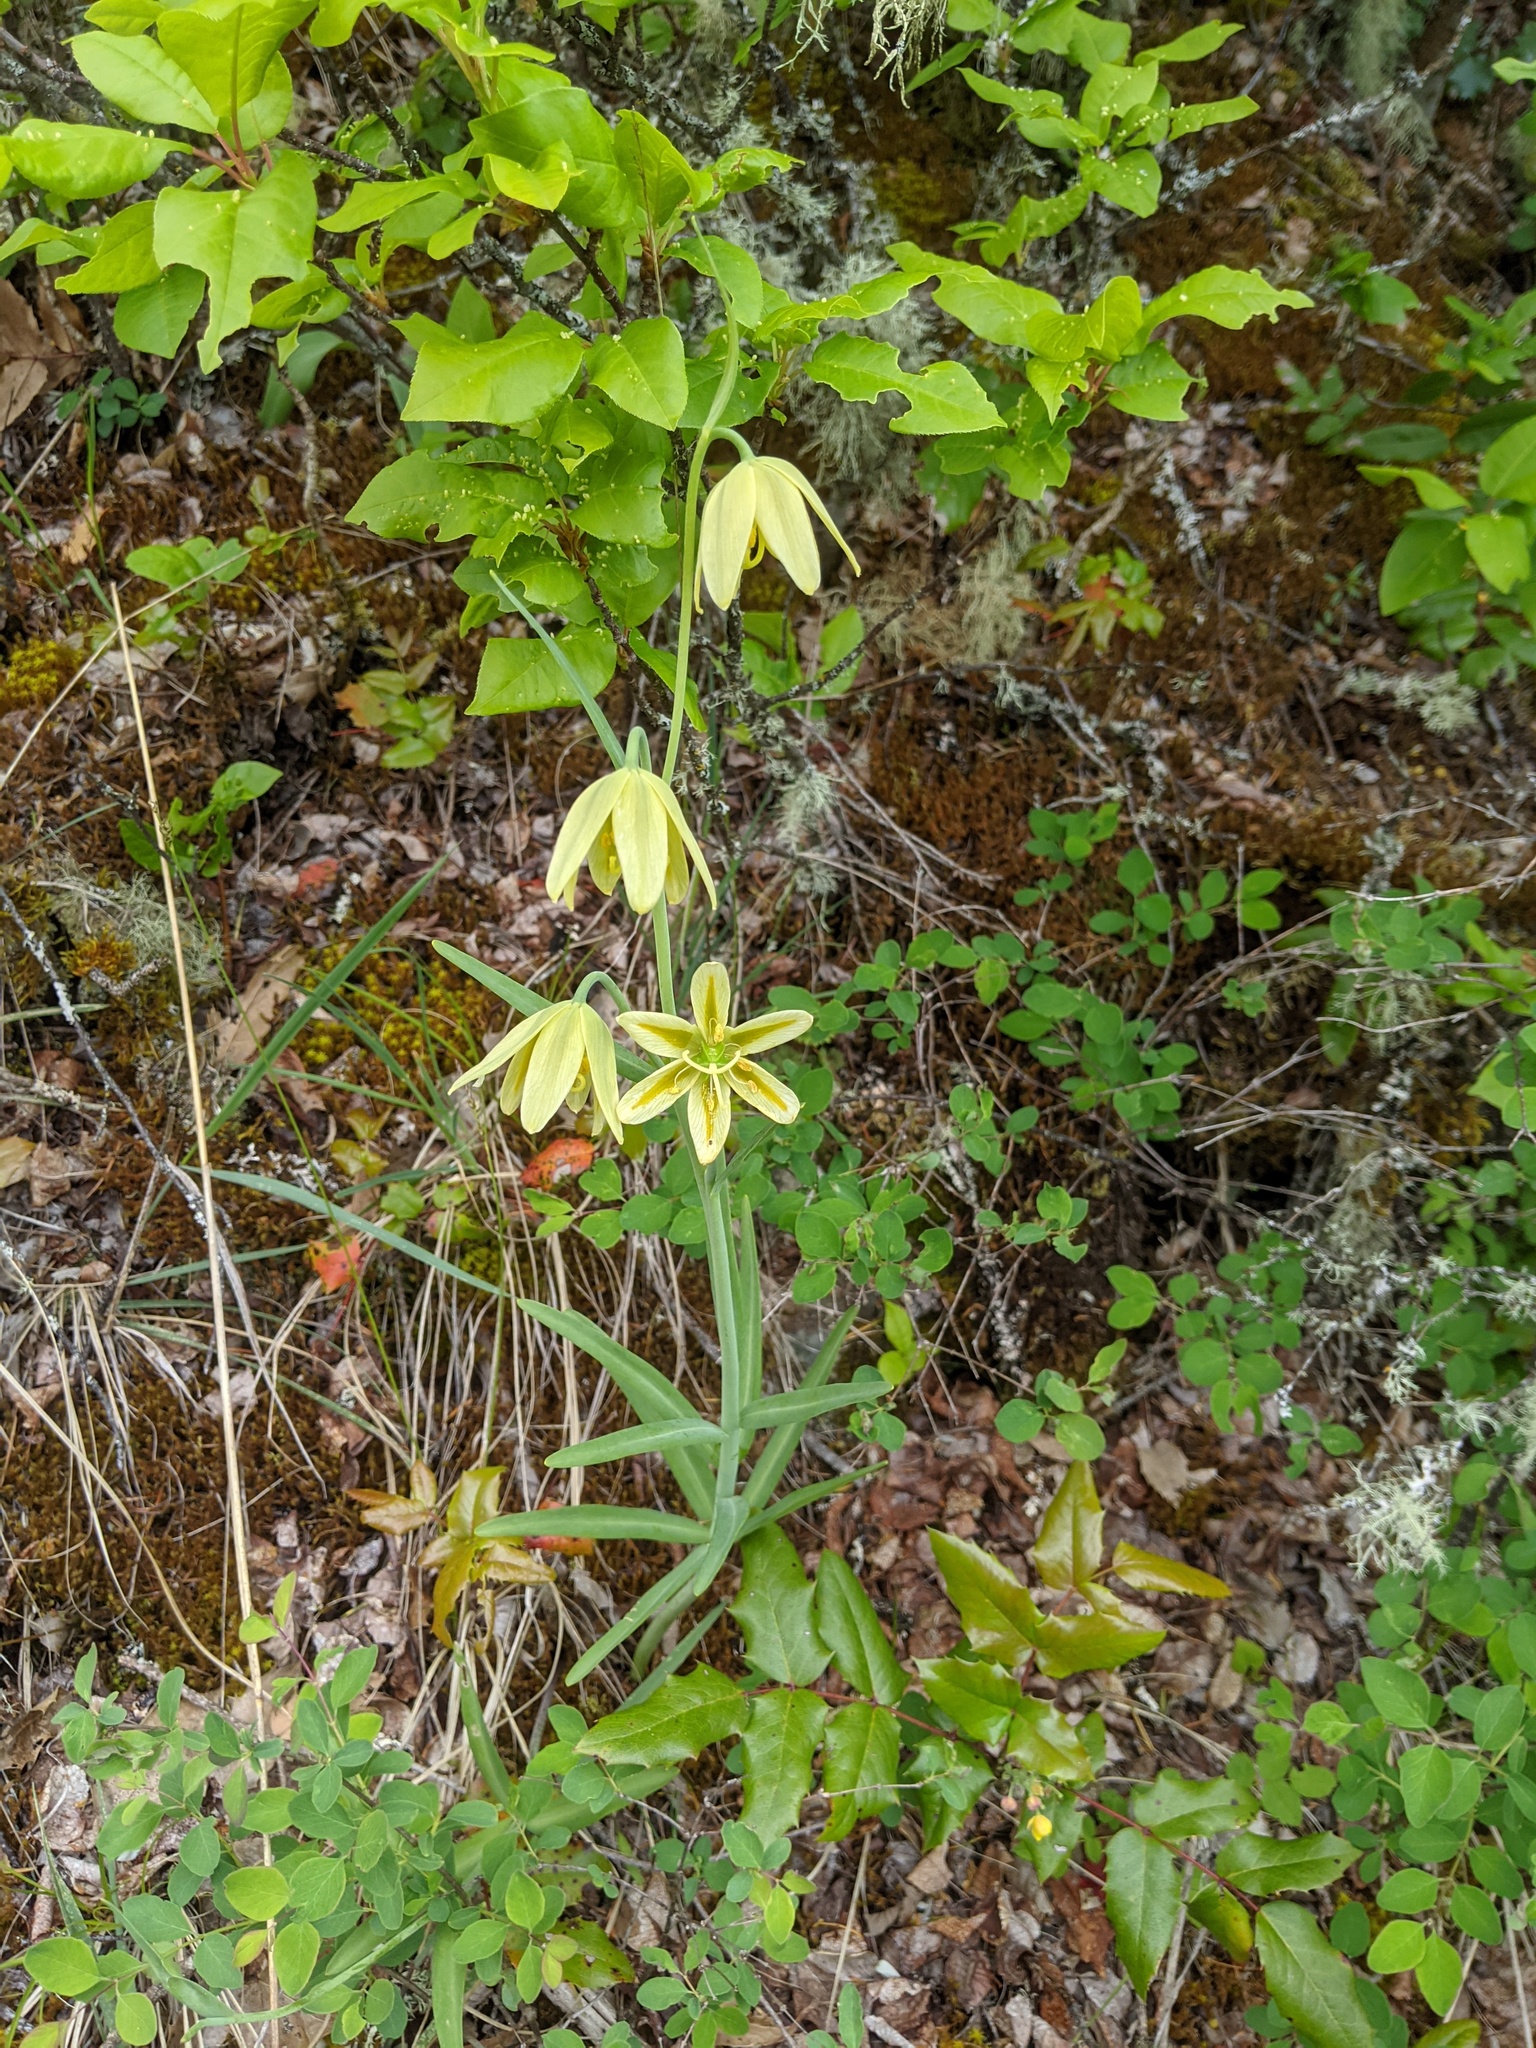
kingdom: Plantae
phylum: Tracheophyta
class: Liliopsida
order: Liliales
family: Liliaceae
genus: Fritillaria
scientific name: Fritillaria affinis
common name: Ojai fritillary
